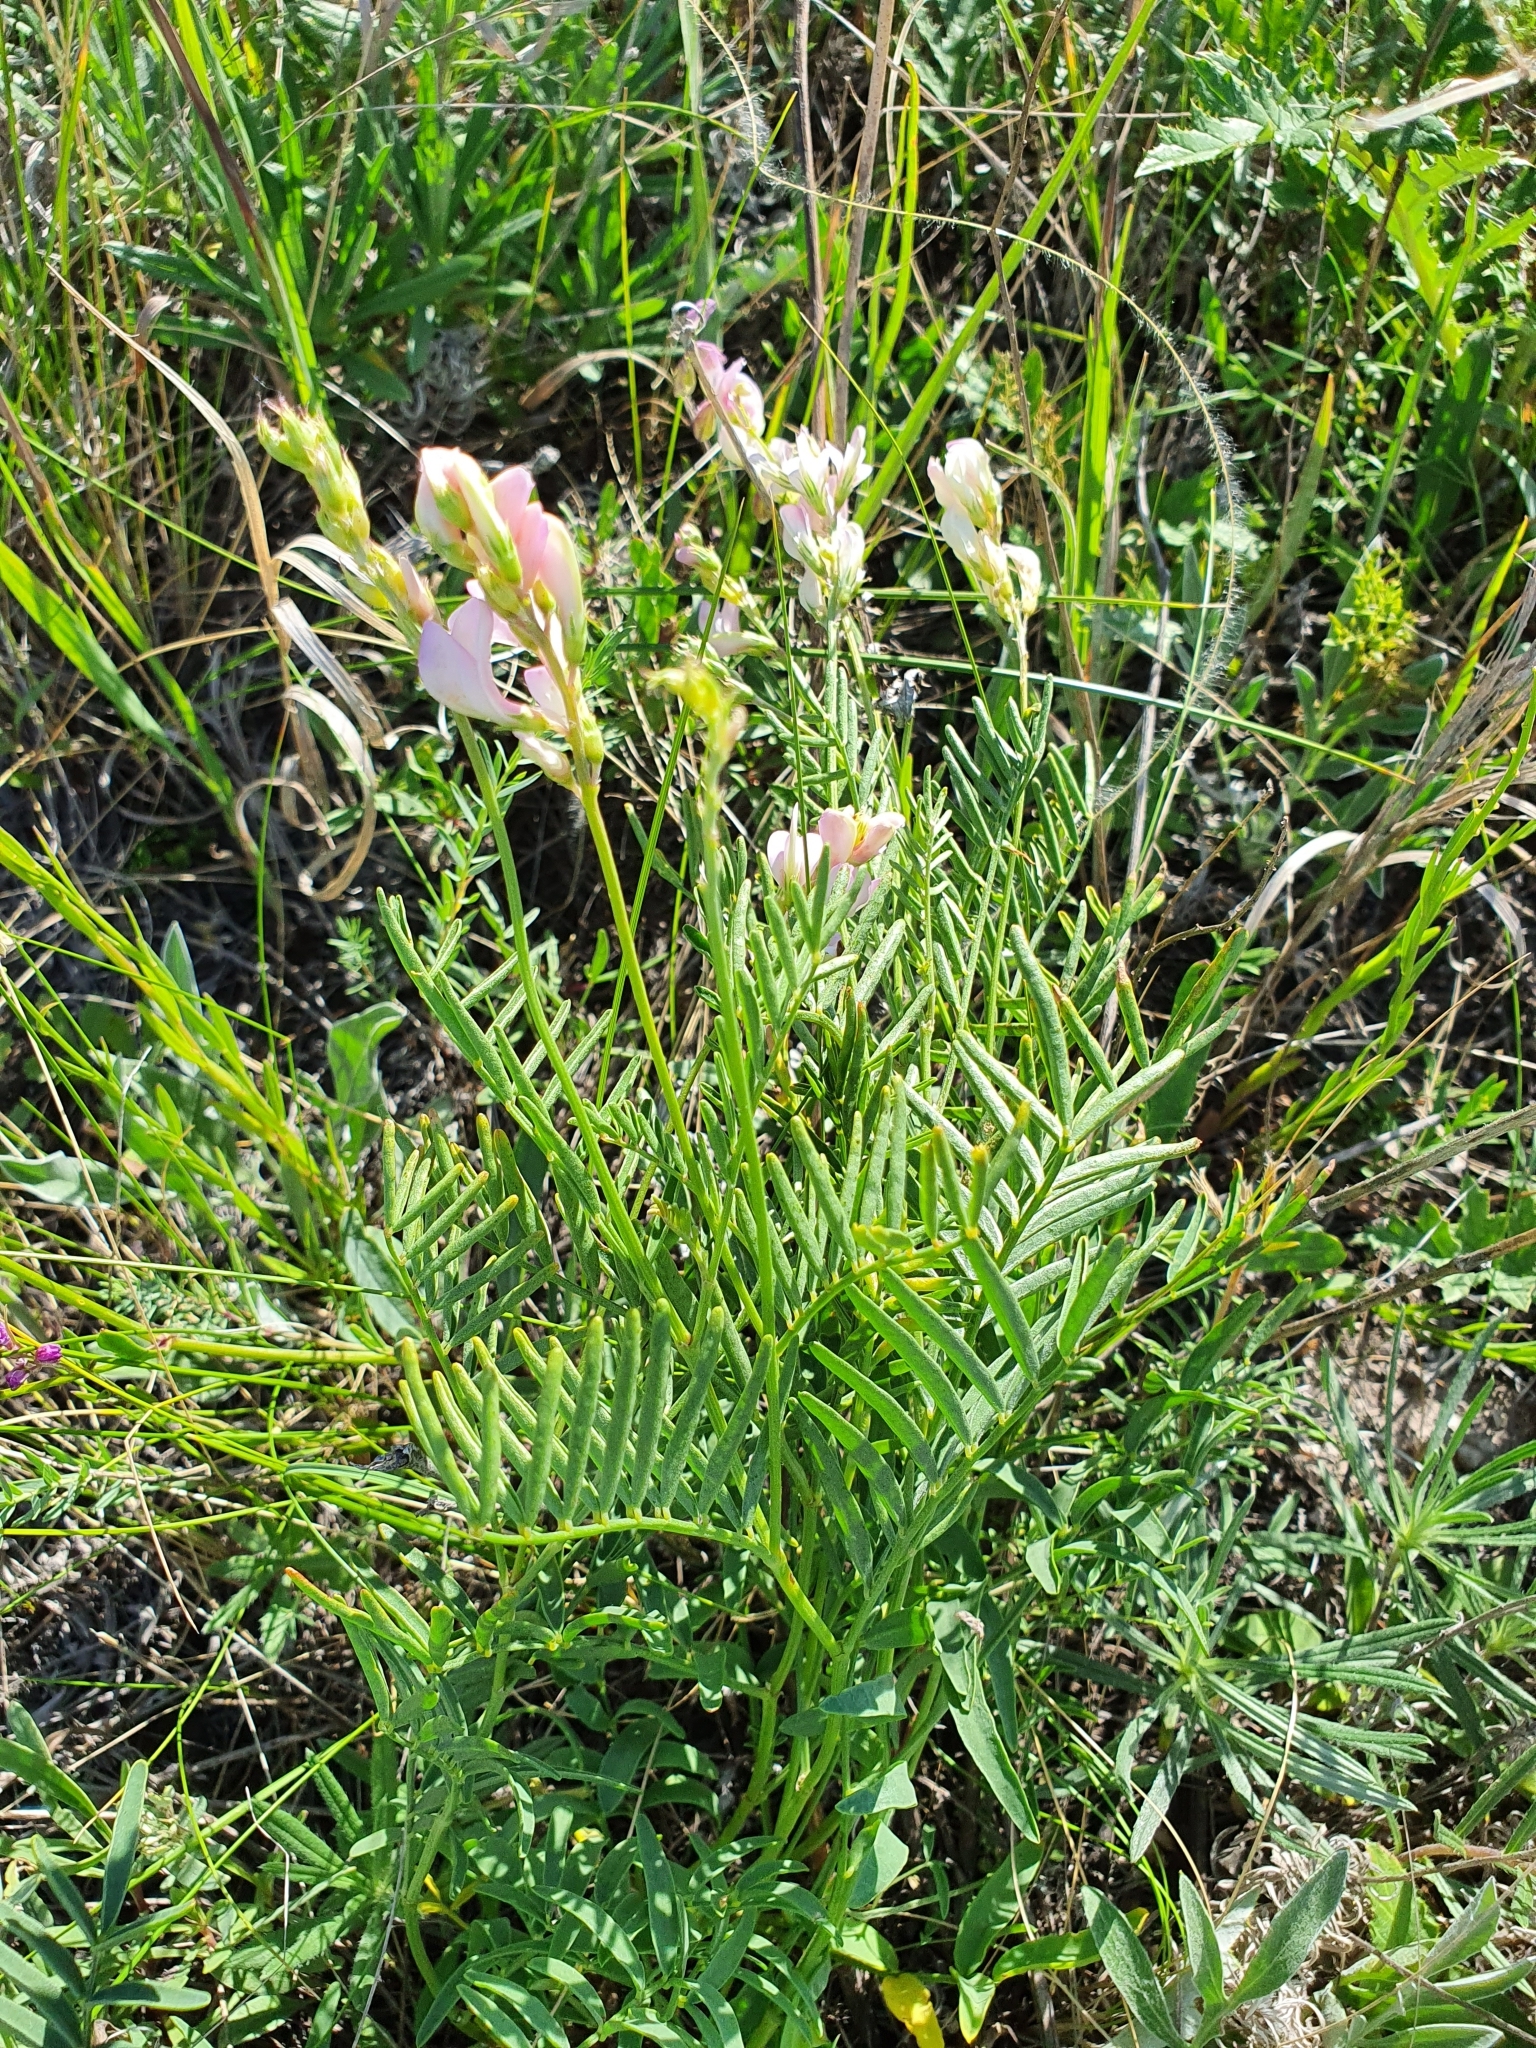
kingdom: Plantae
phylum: Tracheophyta
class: Magnoliopsida
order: Fabales
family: Fabaceae
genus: Hedysarum
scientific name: Hedysarum razoumovianum
